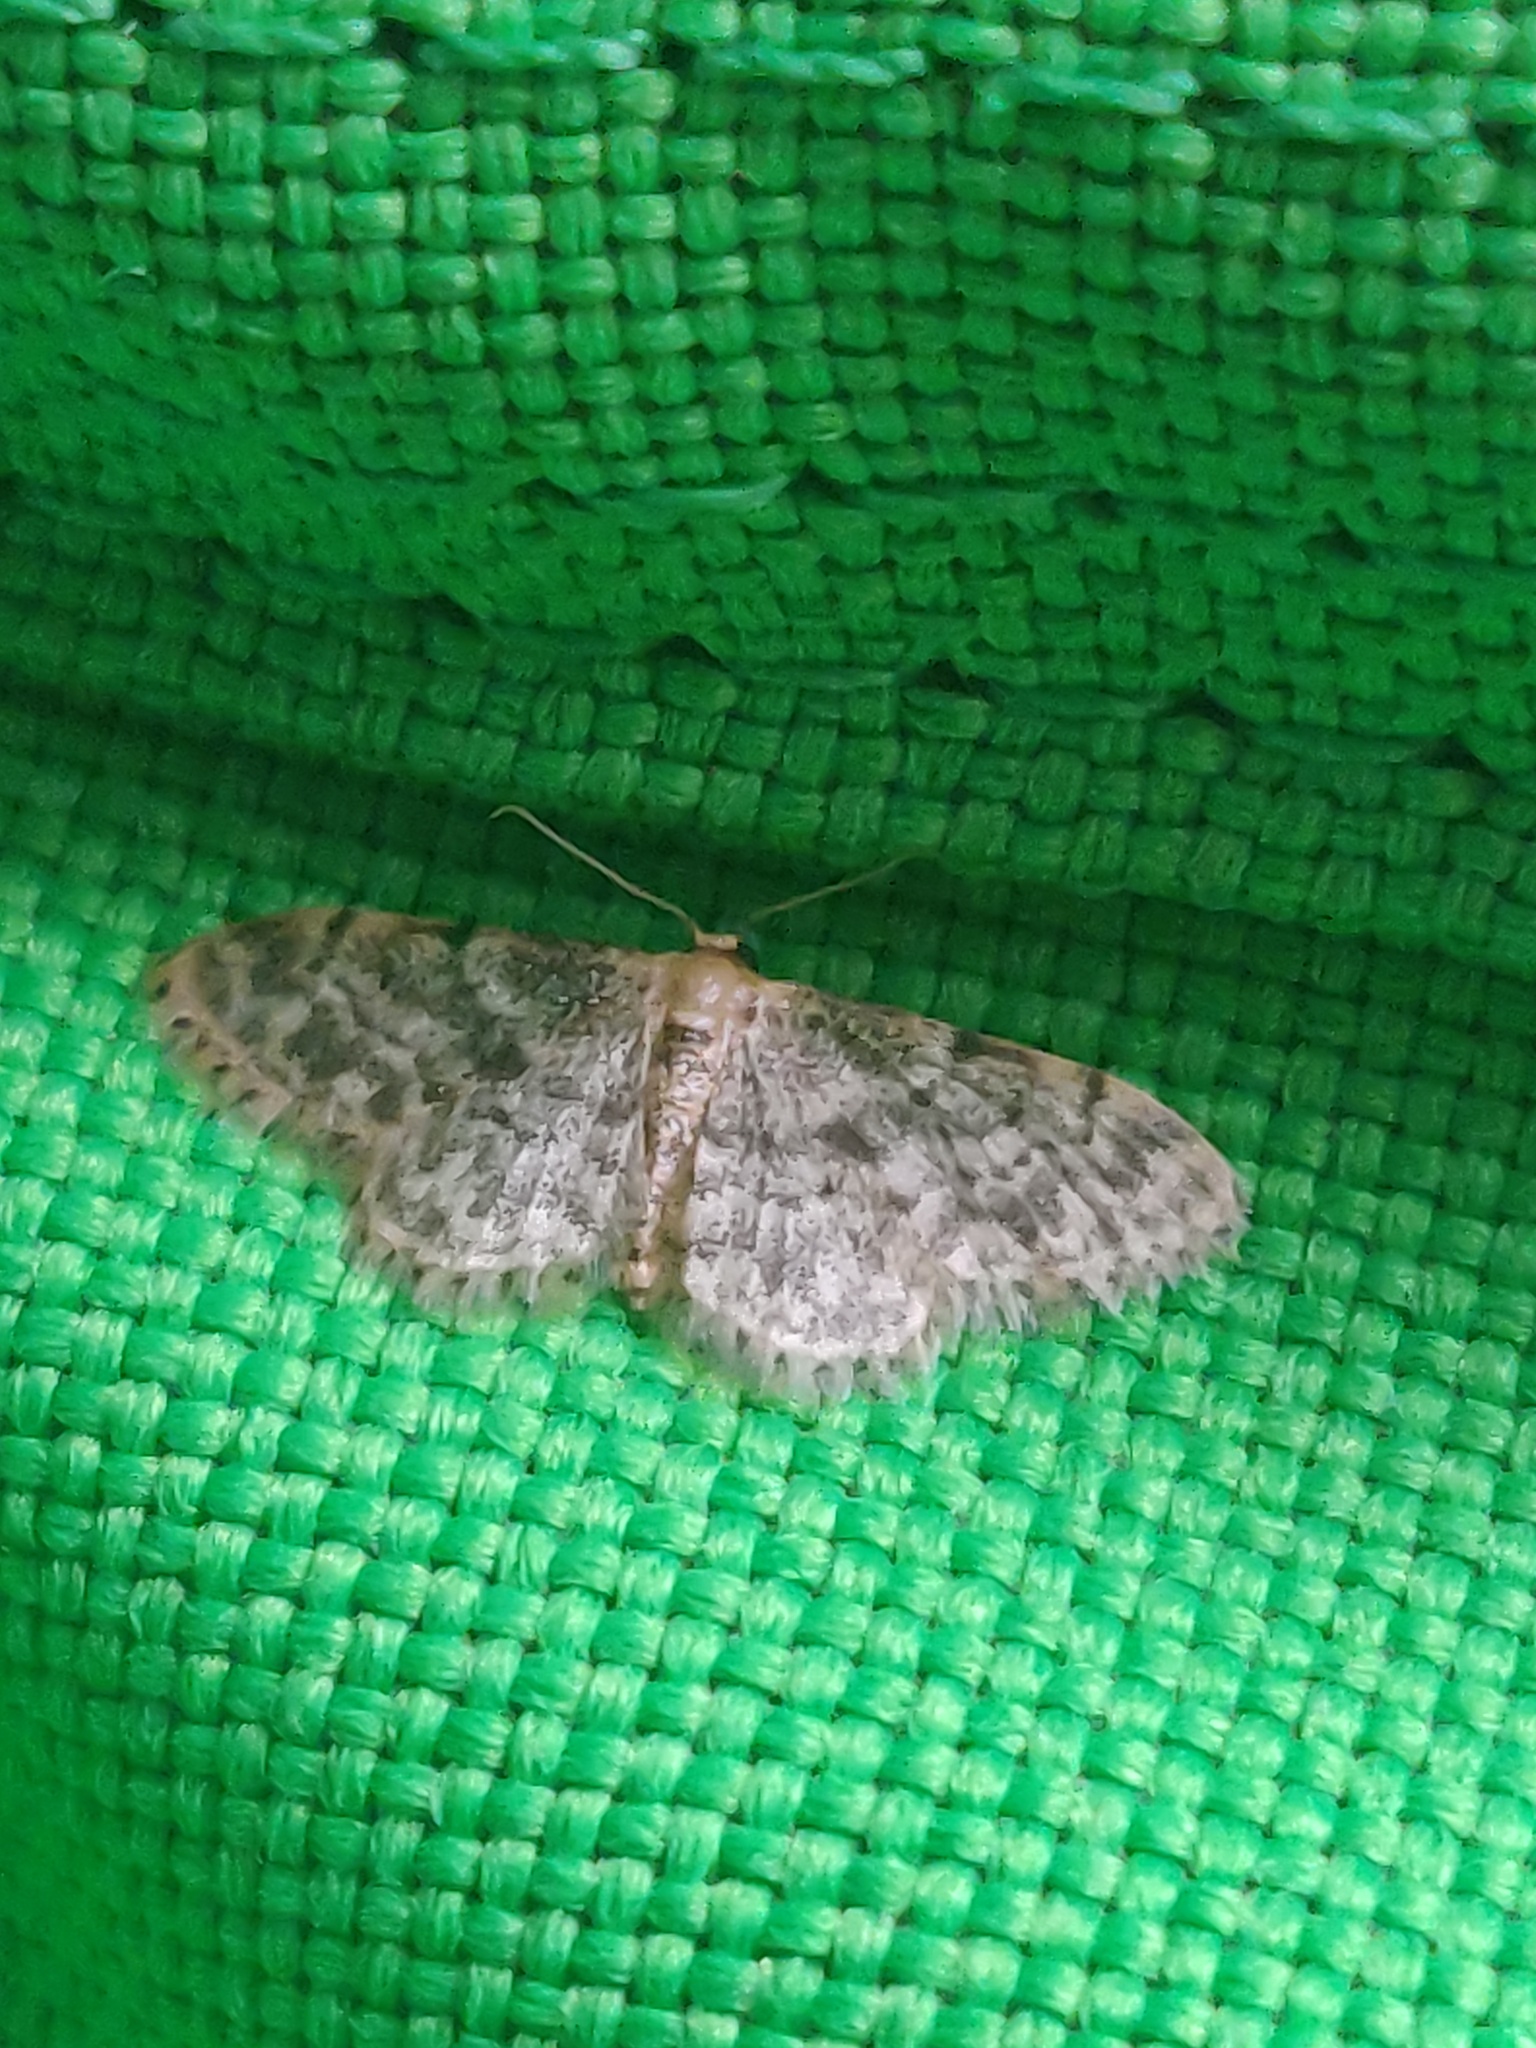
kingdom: Animalia
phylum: Arthropoda
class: Insecta
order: Lepidoptera
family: Geometridae
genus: Idaea
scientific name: Idaea inquinata
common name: Rusty wave
